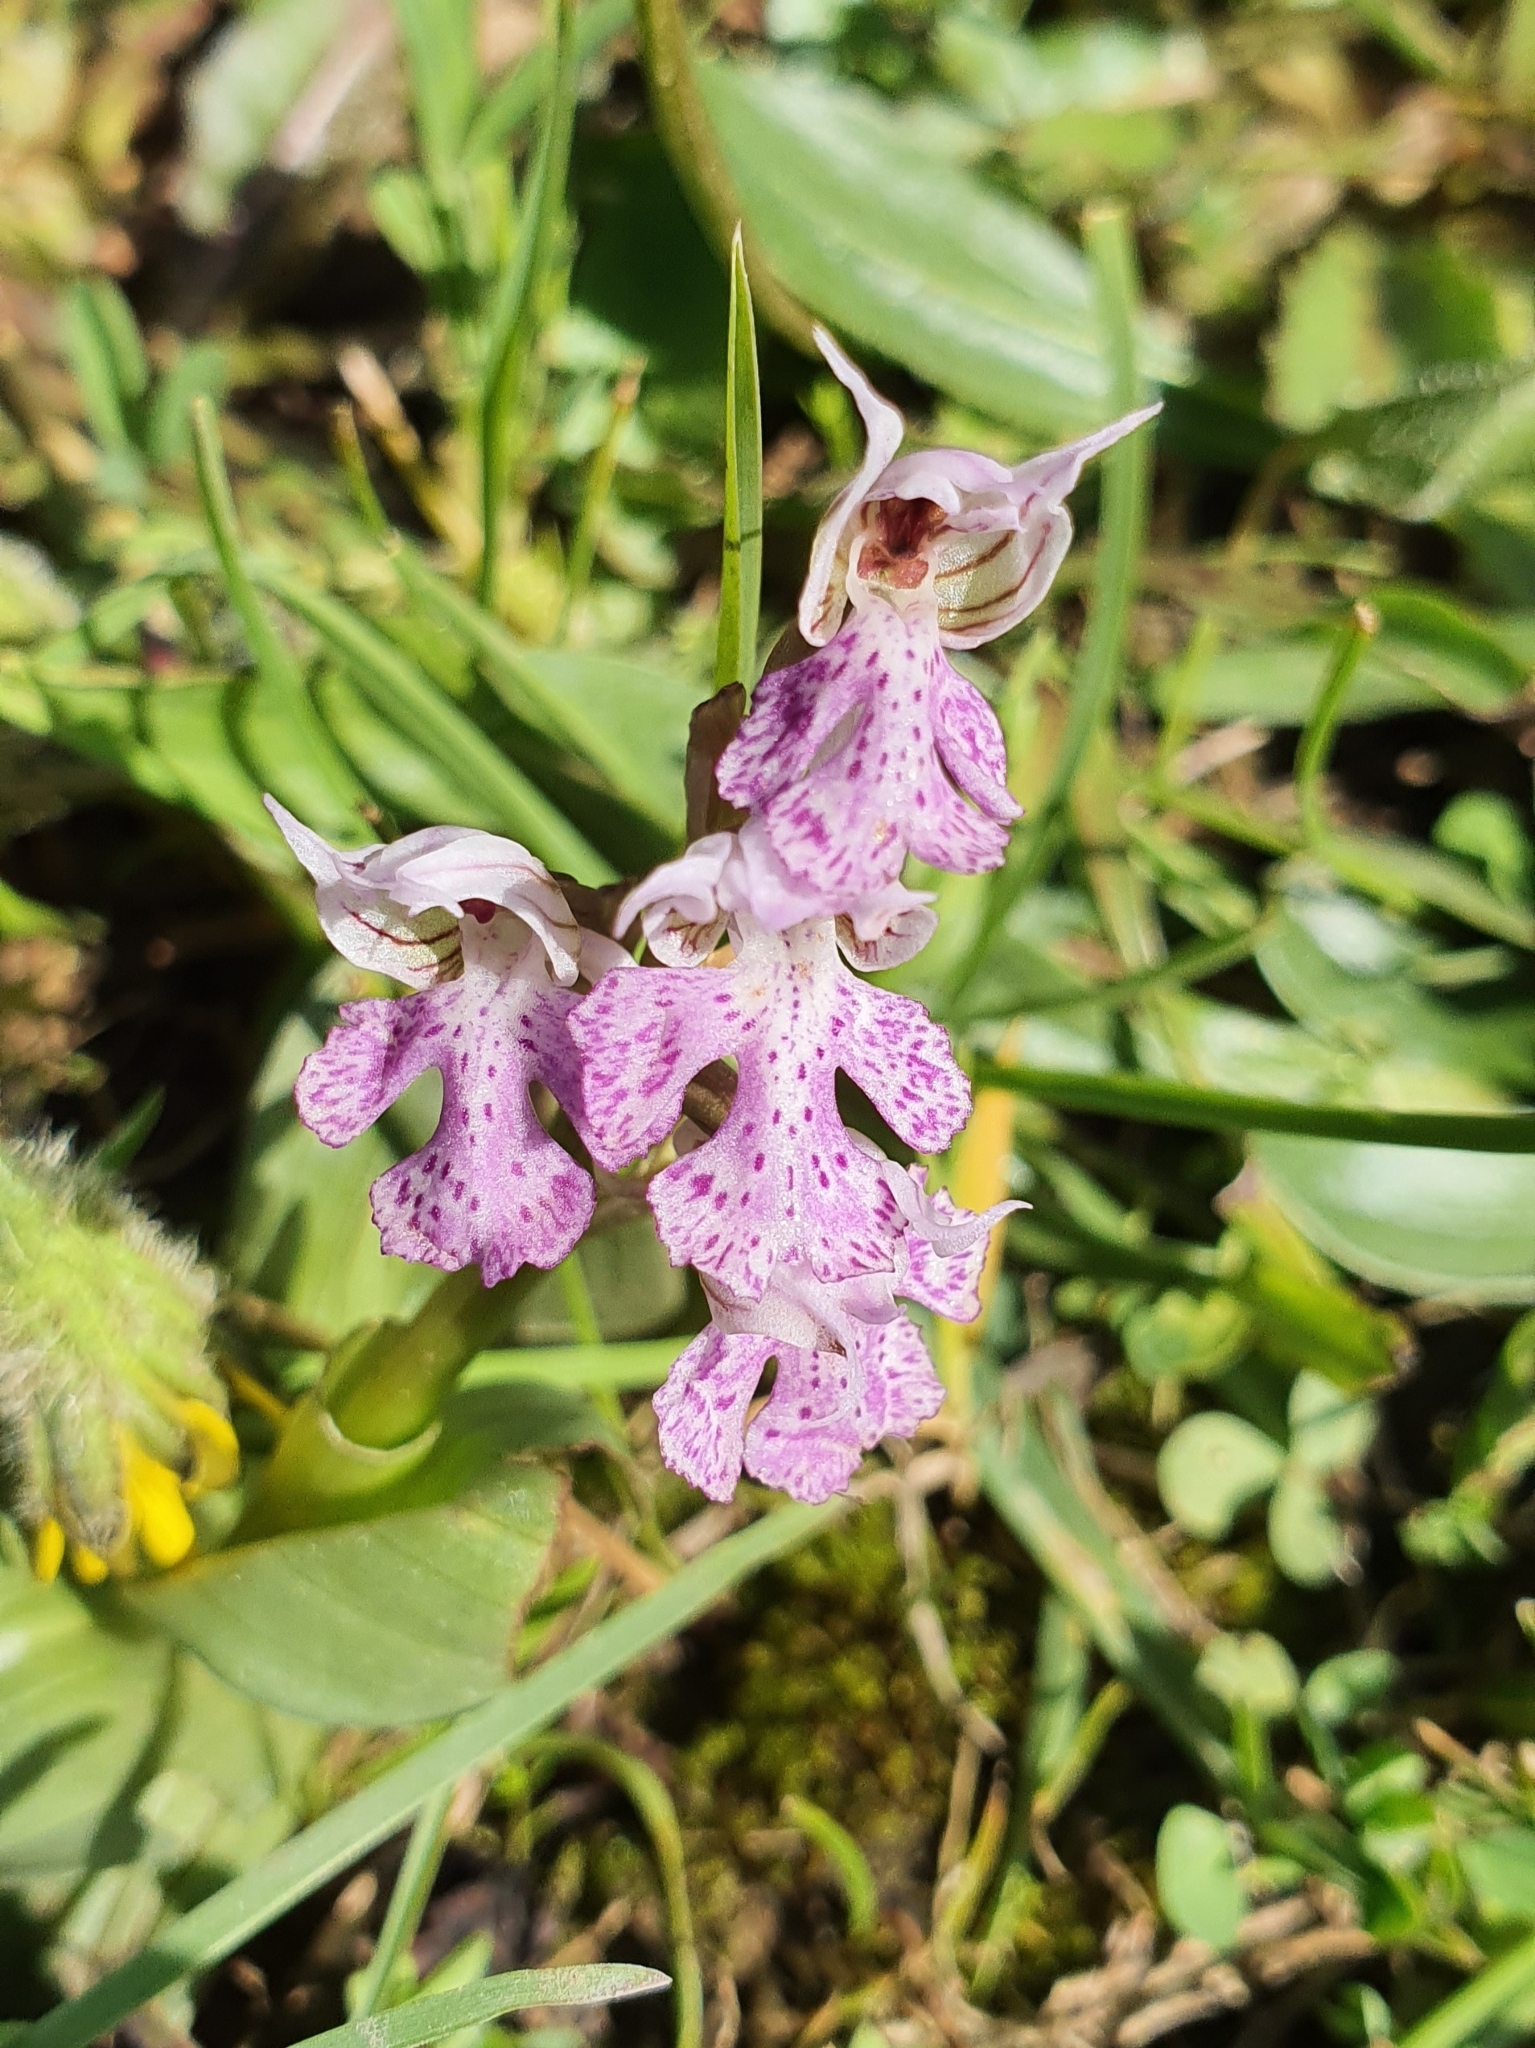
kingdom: Plantae
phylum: Tracheophyta
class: Liliopsida
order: Asparagales
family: Orchidaceae
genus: Neotinea
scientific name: Neotinea lactea
